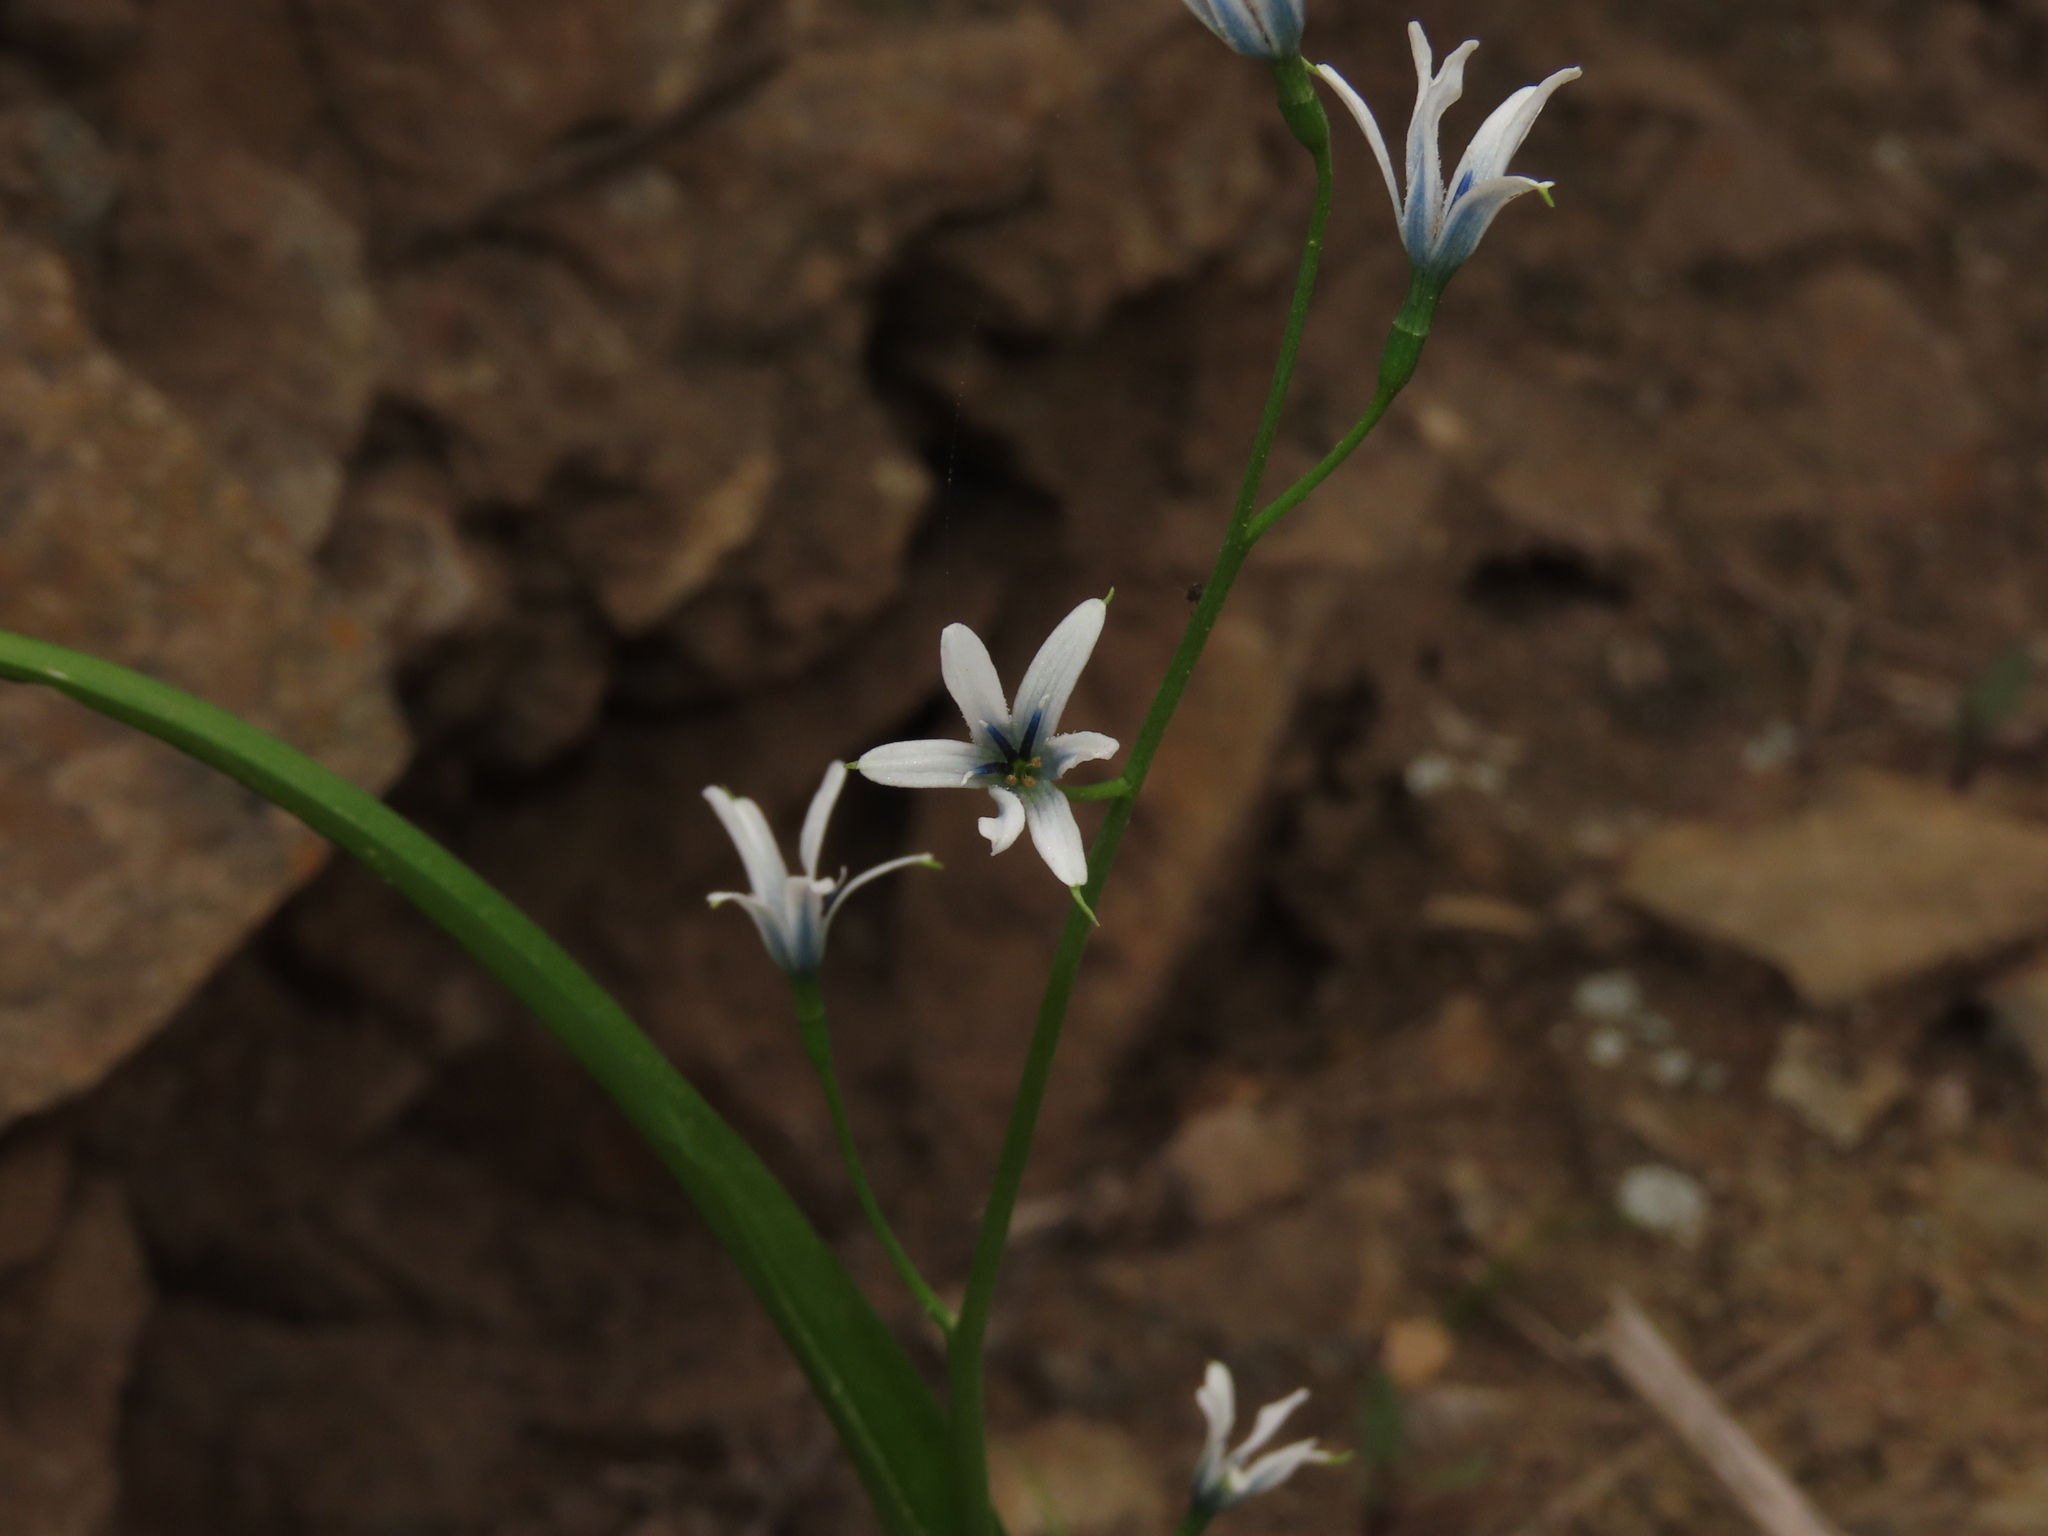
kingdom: Plantae
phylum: Tracheophyta
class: Liliopsida
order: Asparagales
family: Tecophilaeaceae
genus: Tecophilaea
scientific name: Tecophilaea violiflora
